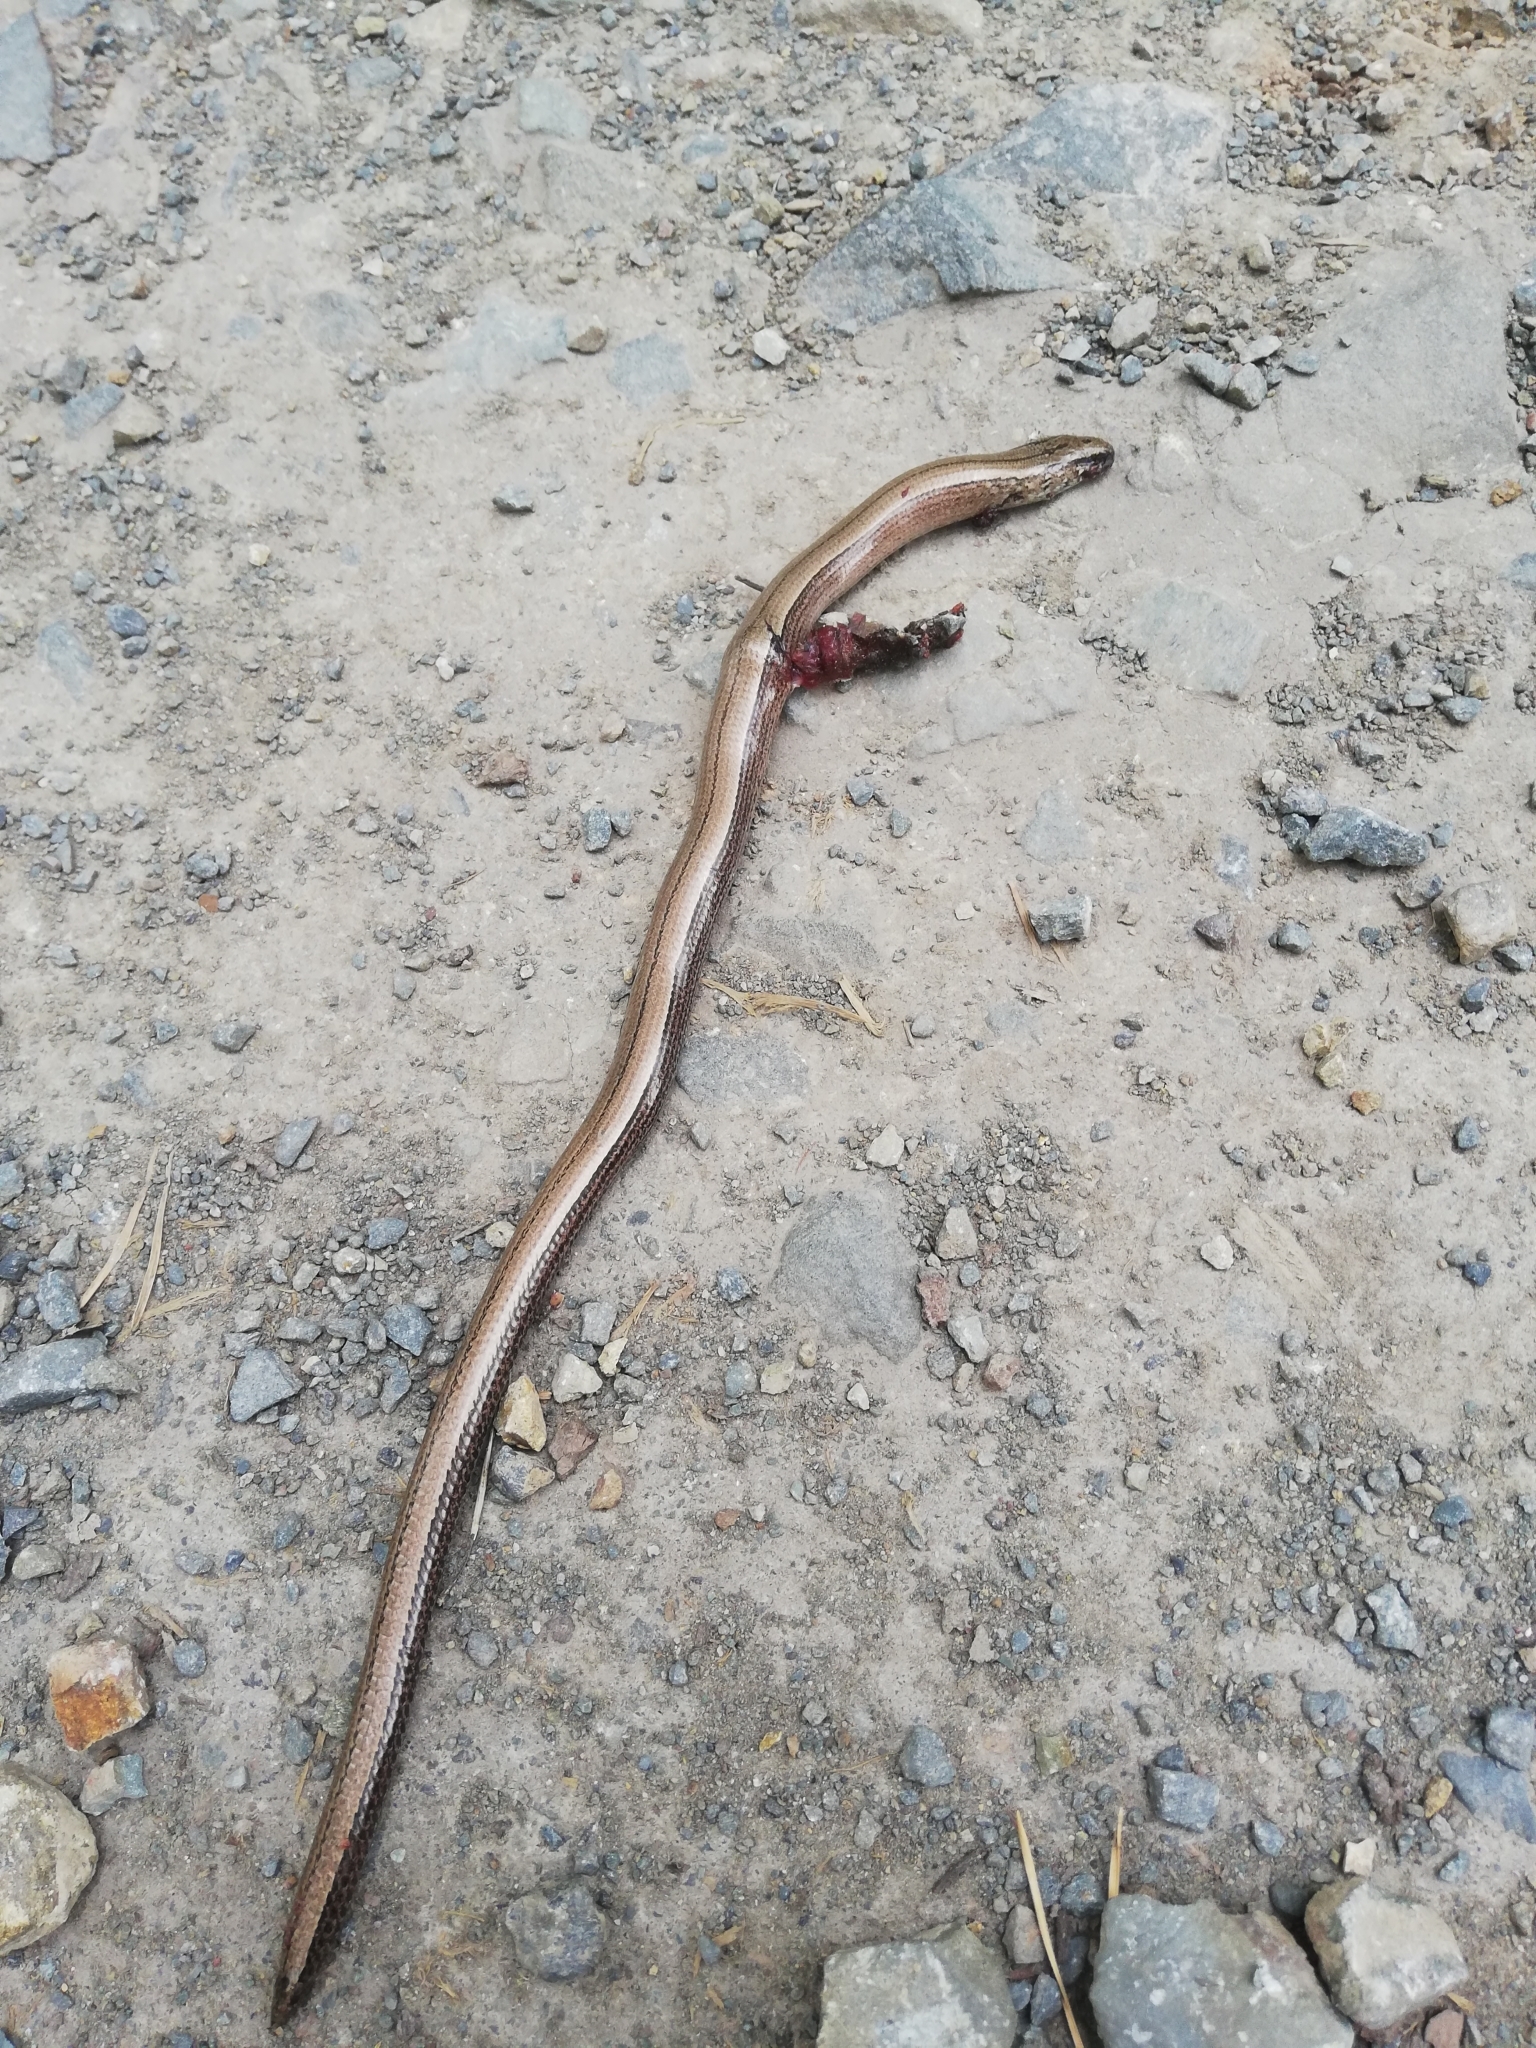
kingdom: Animalia
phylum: Chordata
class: Squamata
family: Anguidae
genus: Anguis
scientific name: Anguis fragilis
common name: Slow worm
